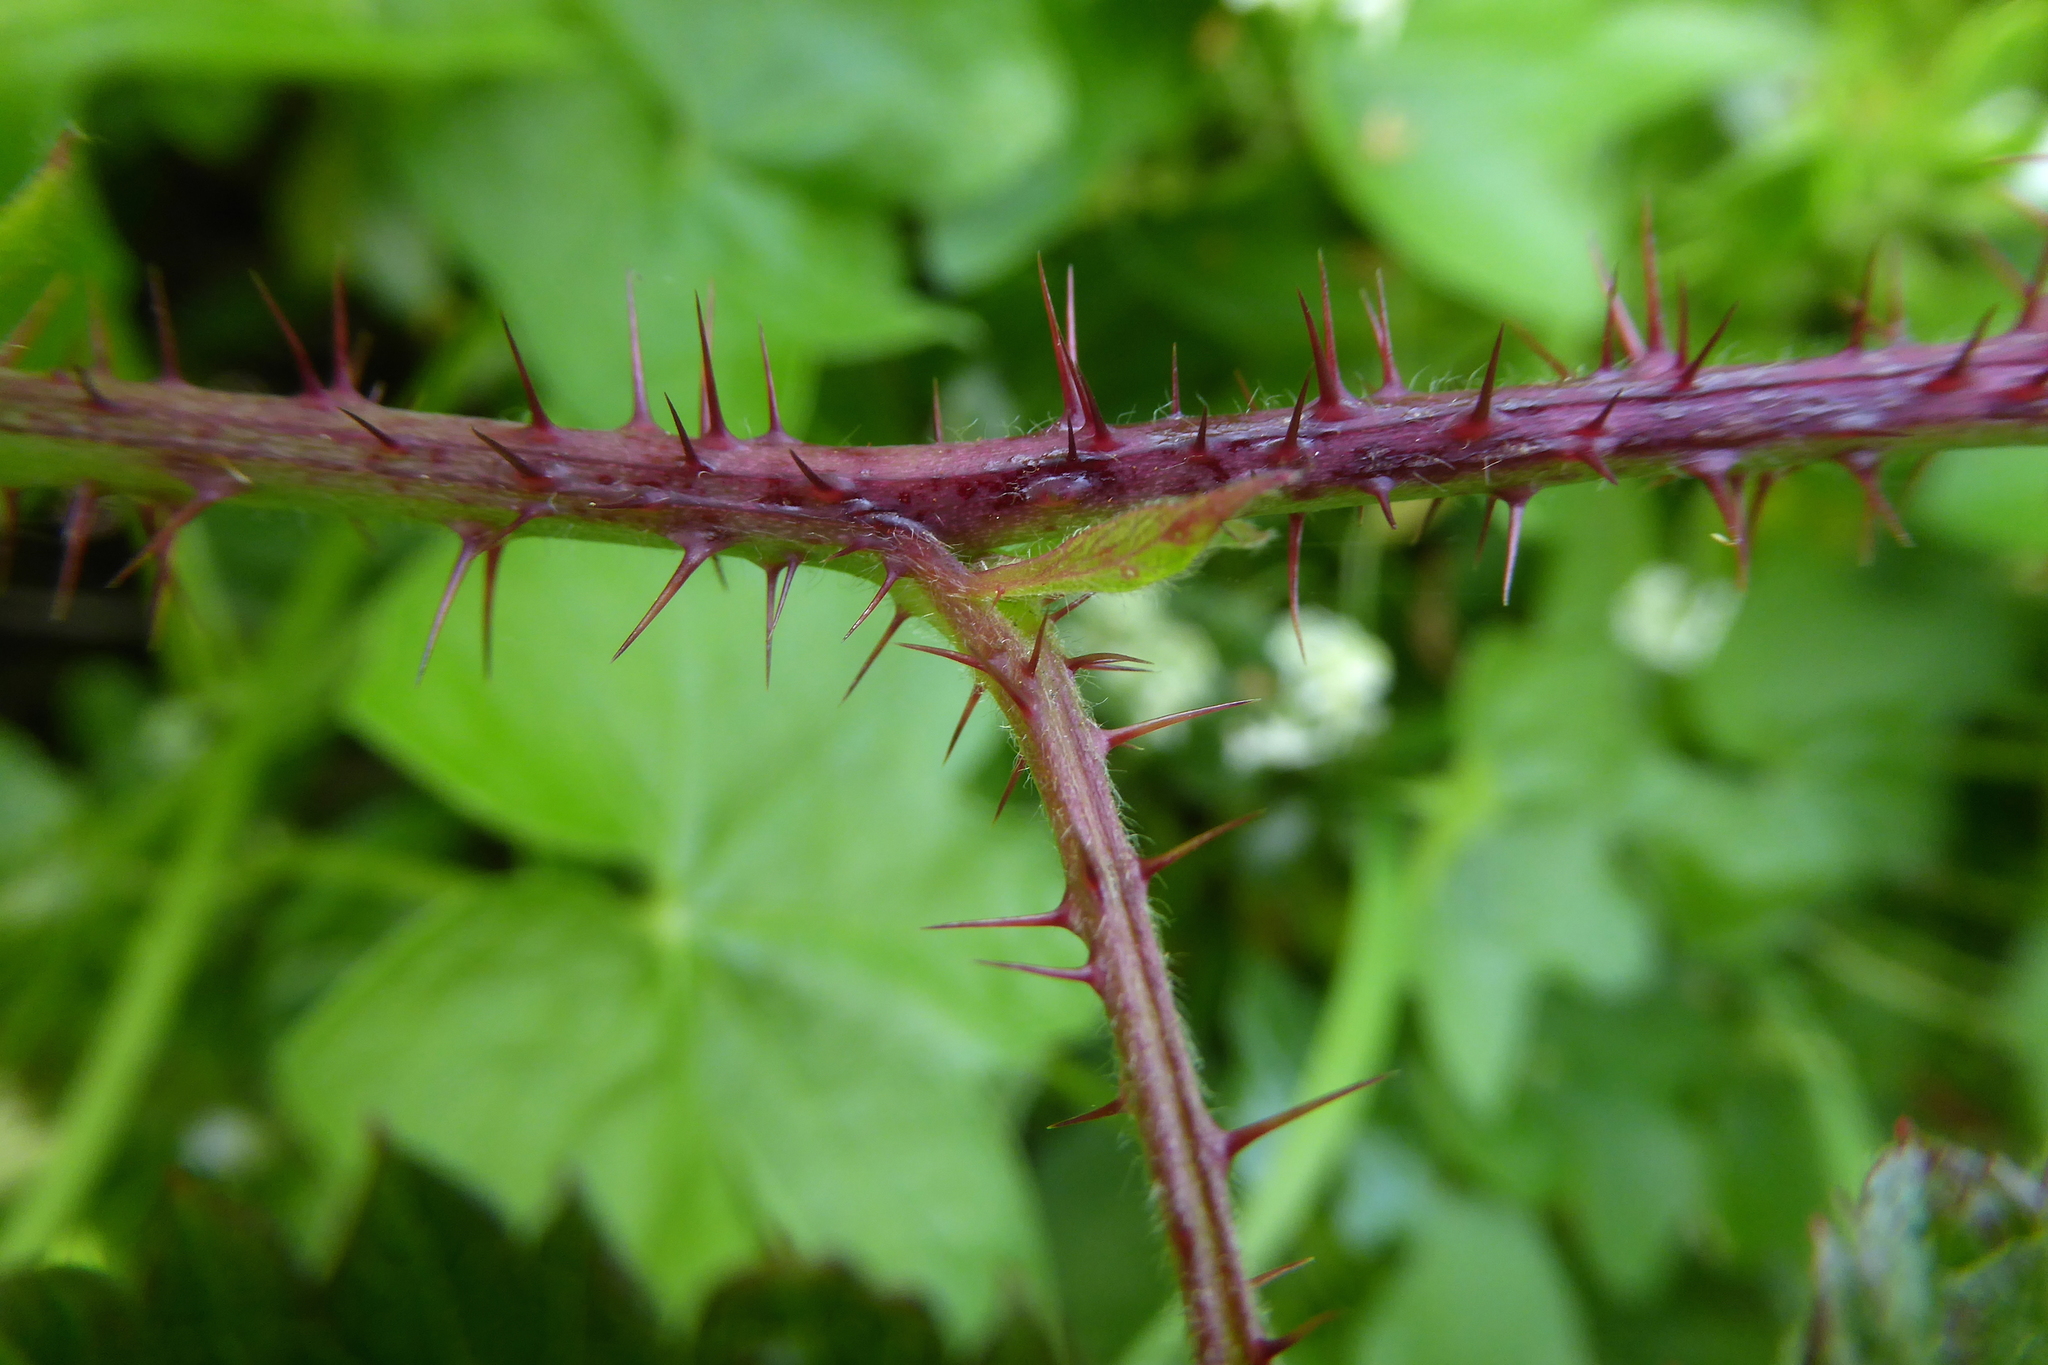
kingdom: Plantae
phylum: Tracheophyta
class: Magnoliopsida
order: Rosales
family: Rosaceae
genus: Rubus
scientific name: Rubus ursinus
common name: Pacific blackberry
